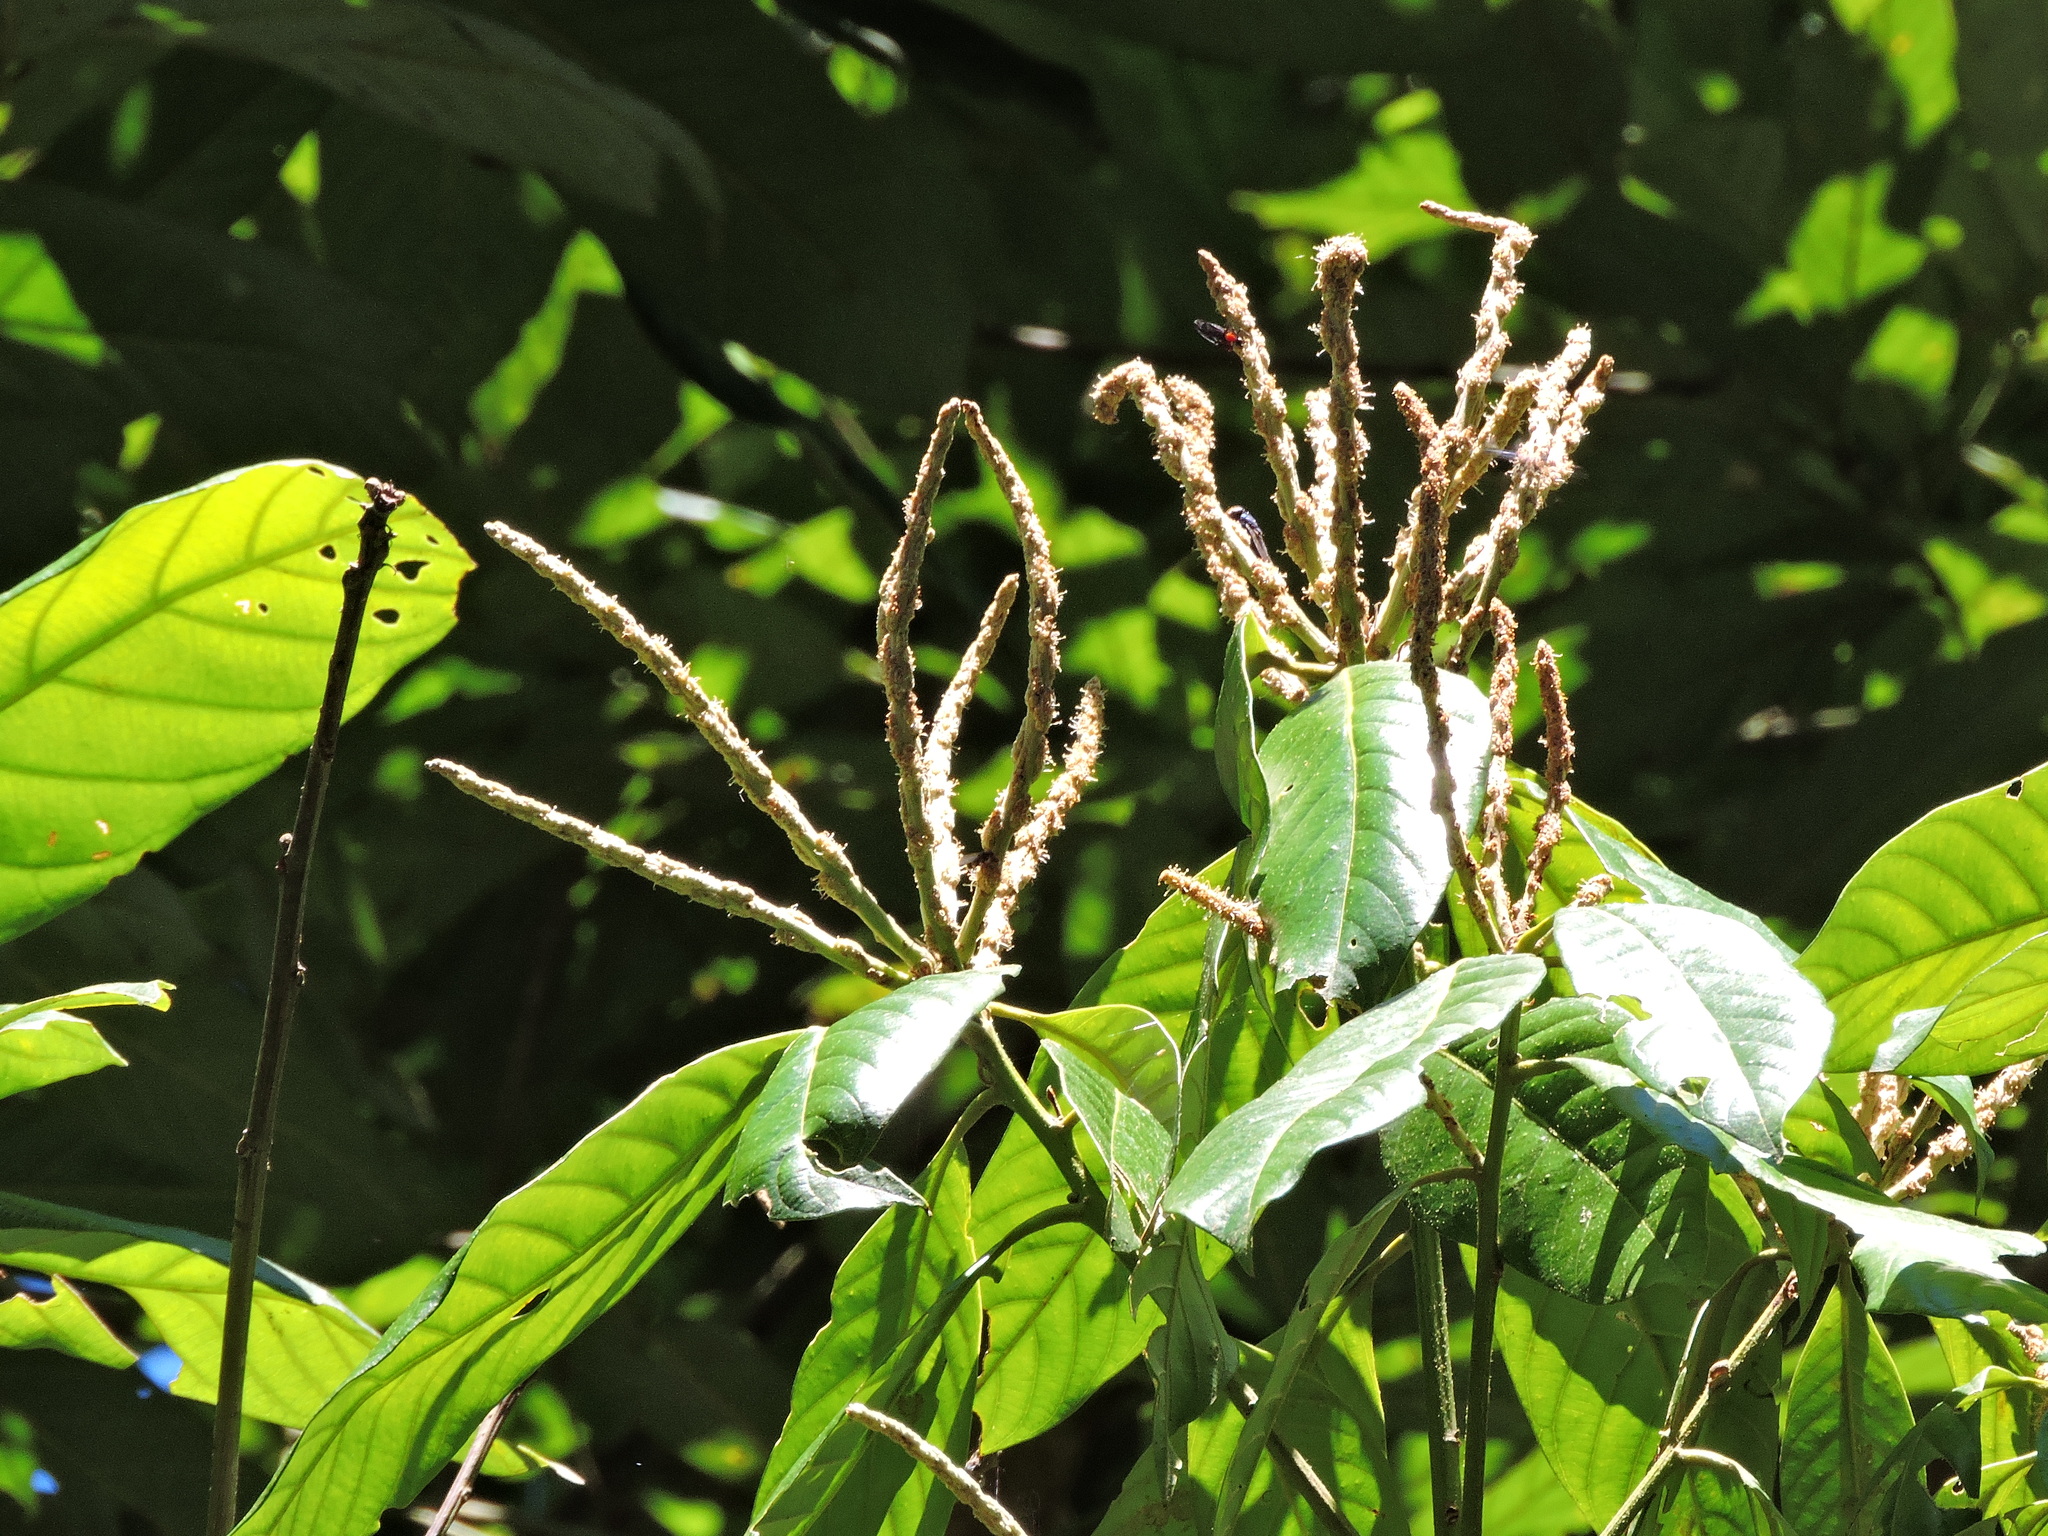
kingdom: Plantae
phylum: Tracheophyta
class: Magnoliopsida
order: Fagales
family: Fagaceae
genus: Lithocarpus
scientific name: Lithocarpus lepidocarpus
